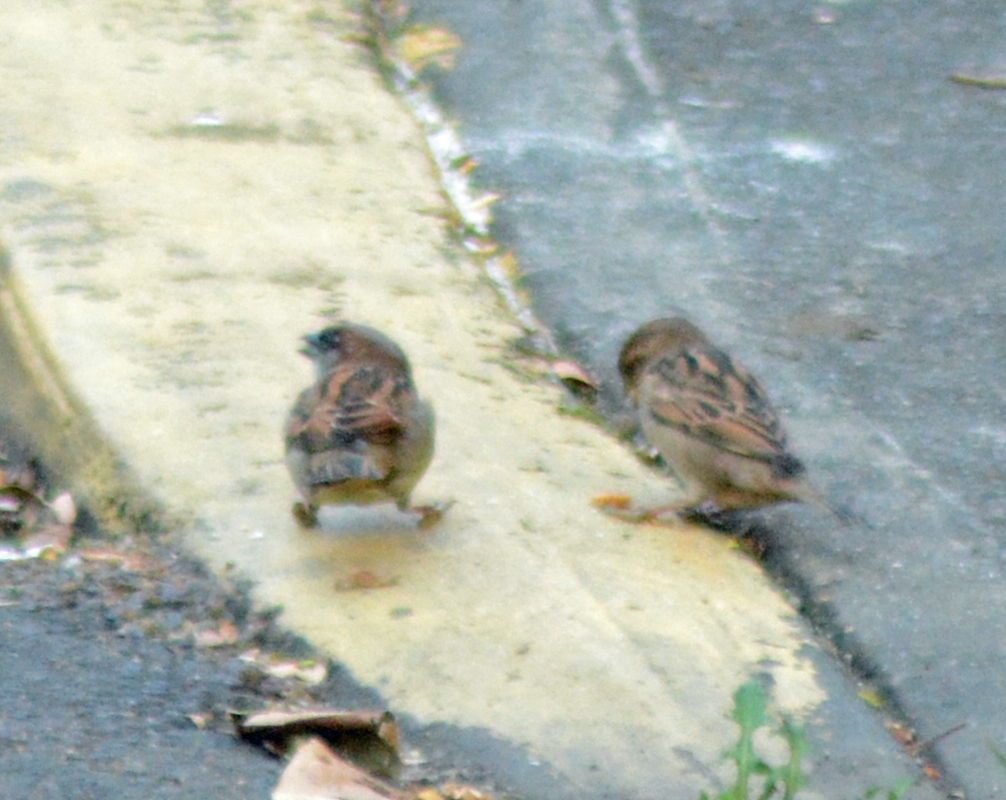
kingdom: Animalia
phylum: Chordata
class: Aves
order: Passeriformes
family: Passeridae
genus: Passer
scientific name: Passer domesticus
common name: House sparrow
